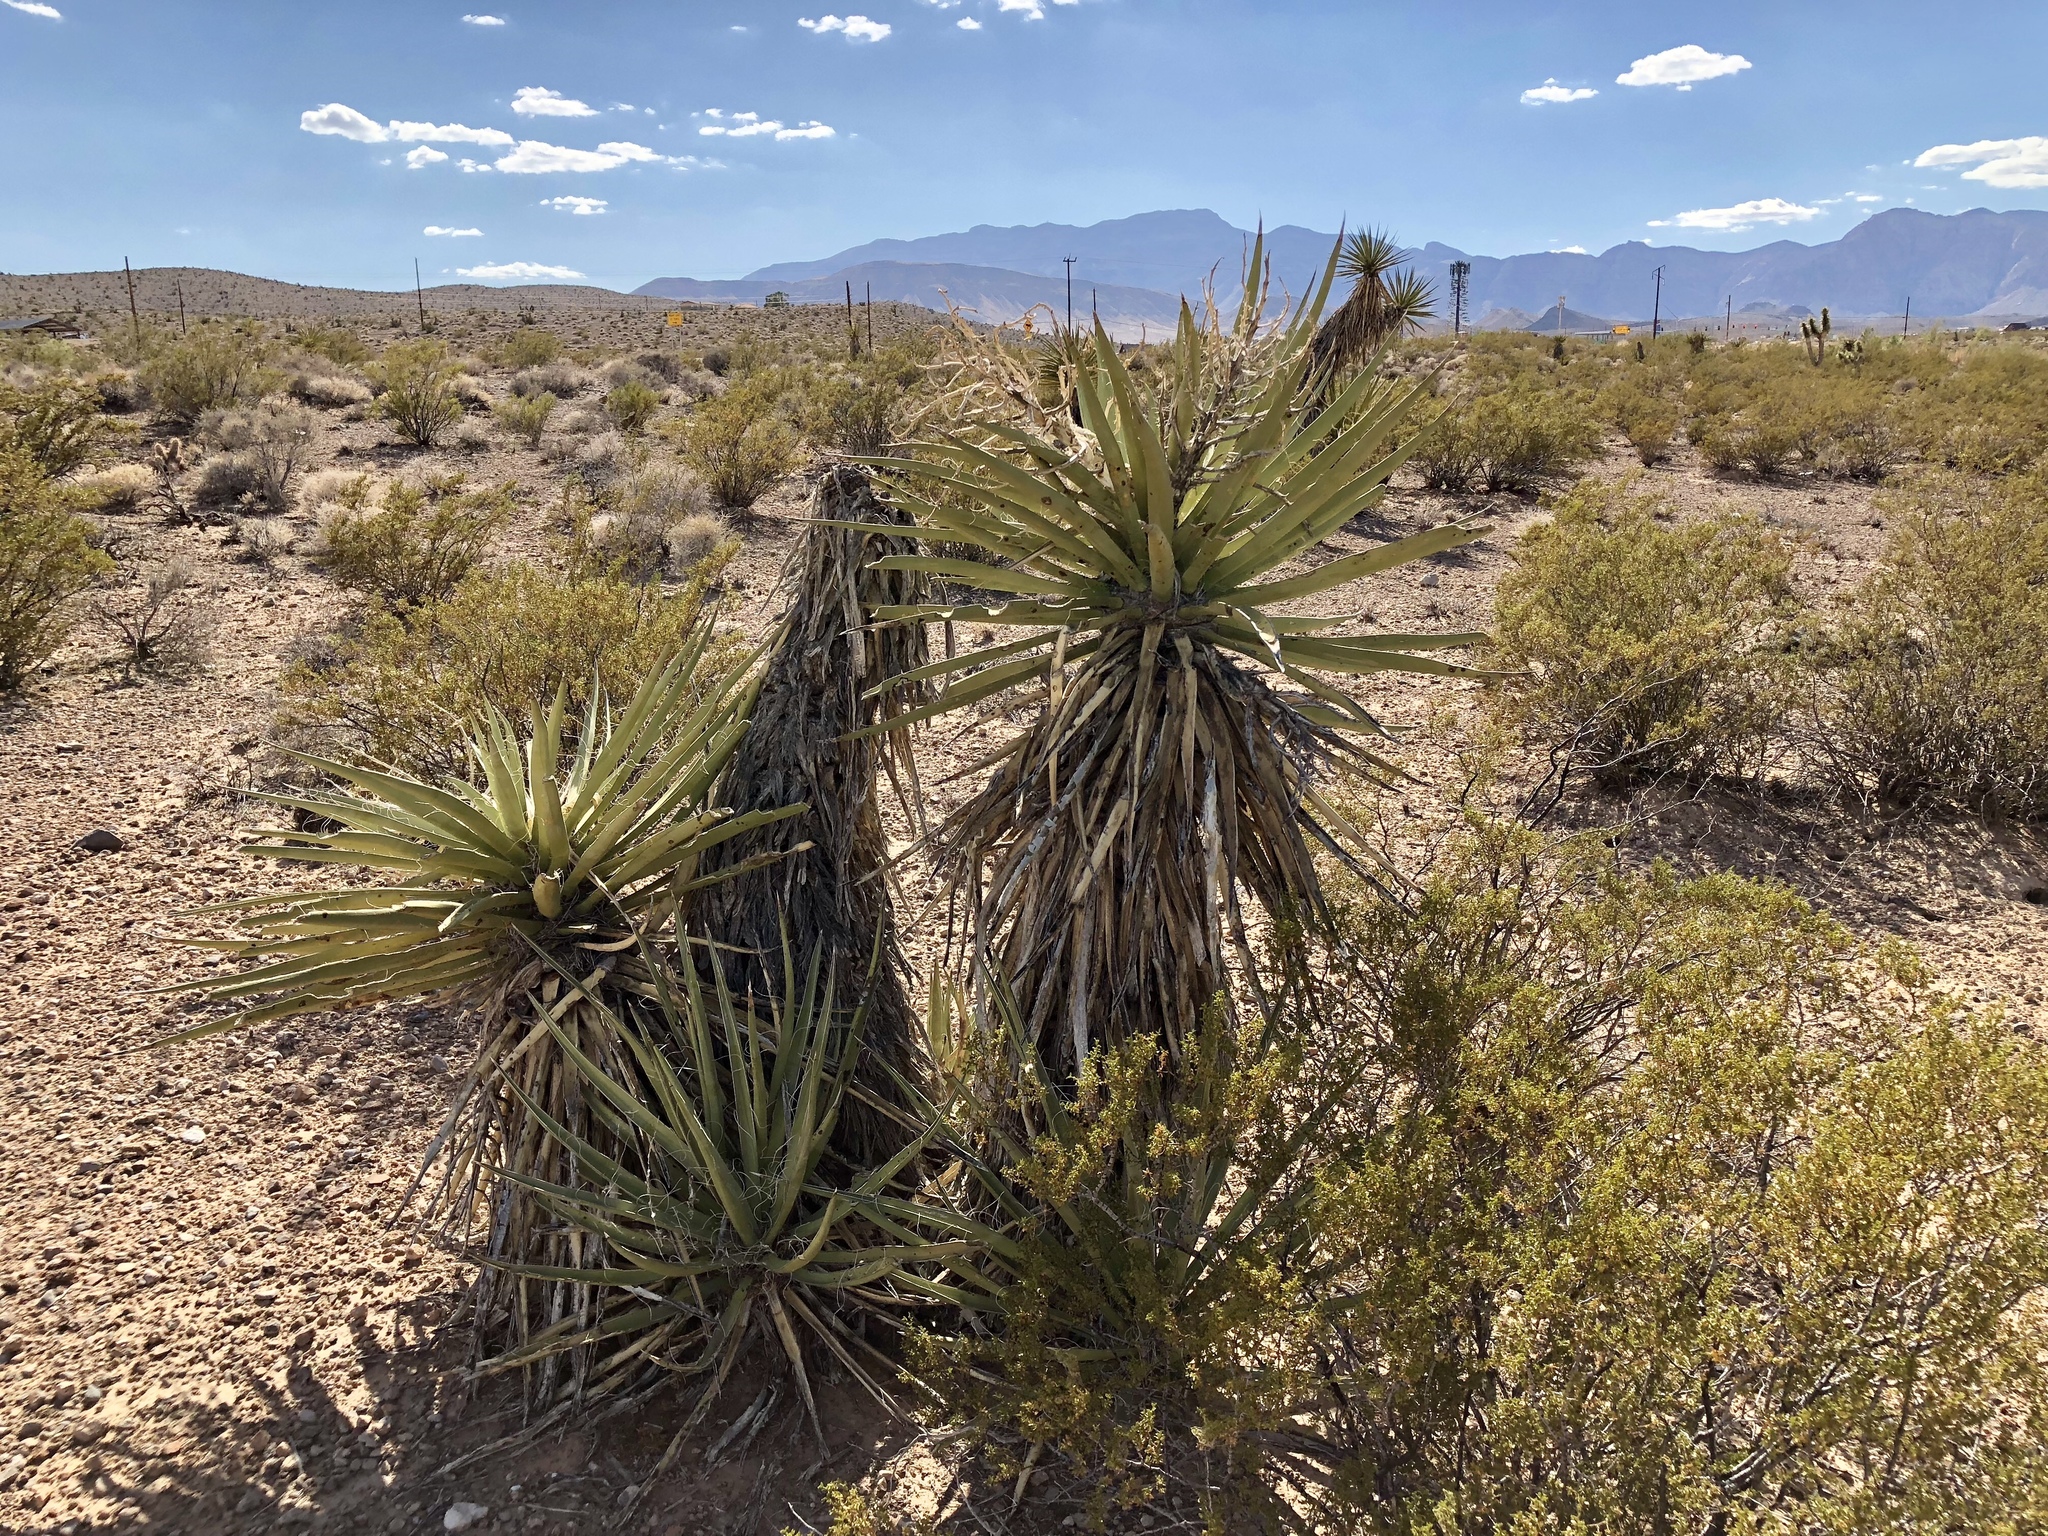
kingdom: Plantae
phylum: Tracheophyta
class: Liliopsida
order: Asparagales
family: Asparagaceae
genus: Yucca
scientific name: Yucca schidigera
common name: Mojave yucca
